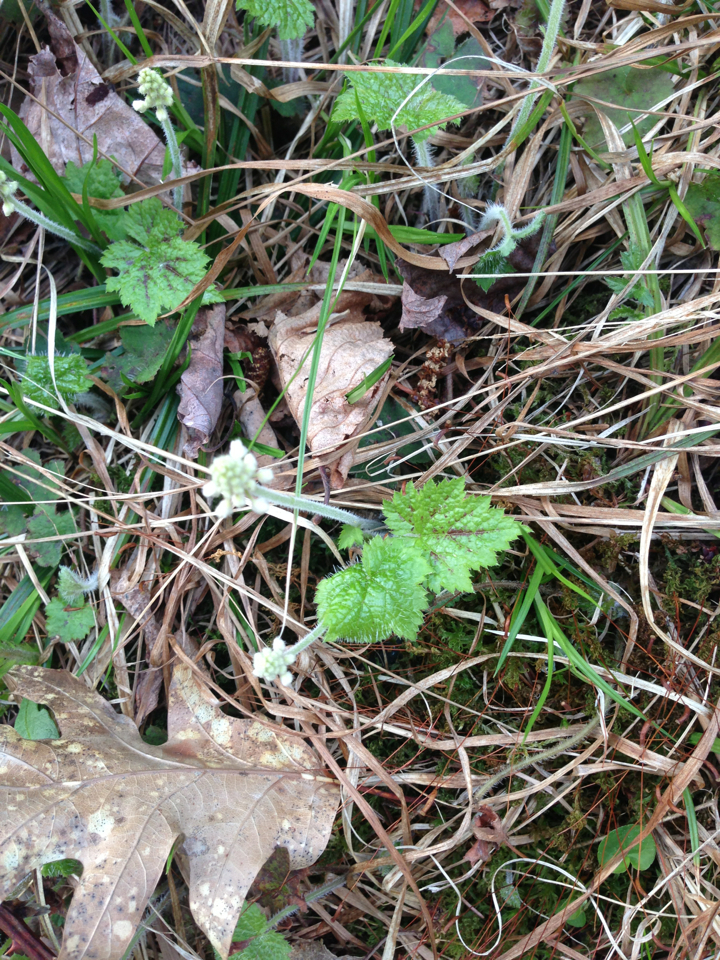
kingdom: Plantae
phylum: Tracheophyta
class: Magnoliopsida
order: Saxifragales
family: Saxifragaceae
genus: Tiarella
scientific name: Tiarella stolonifera
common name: Stoloniferous foamflower
